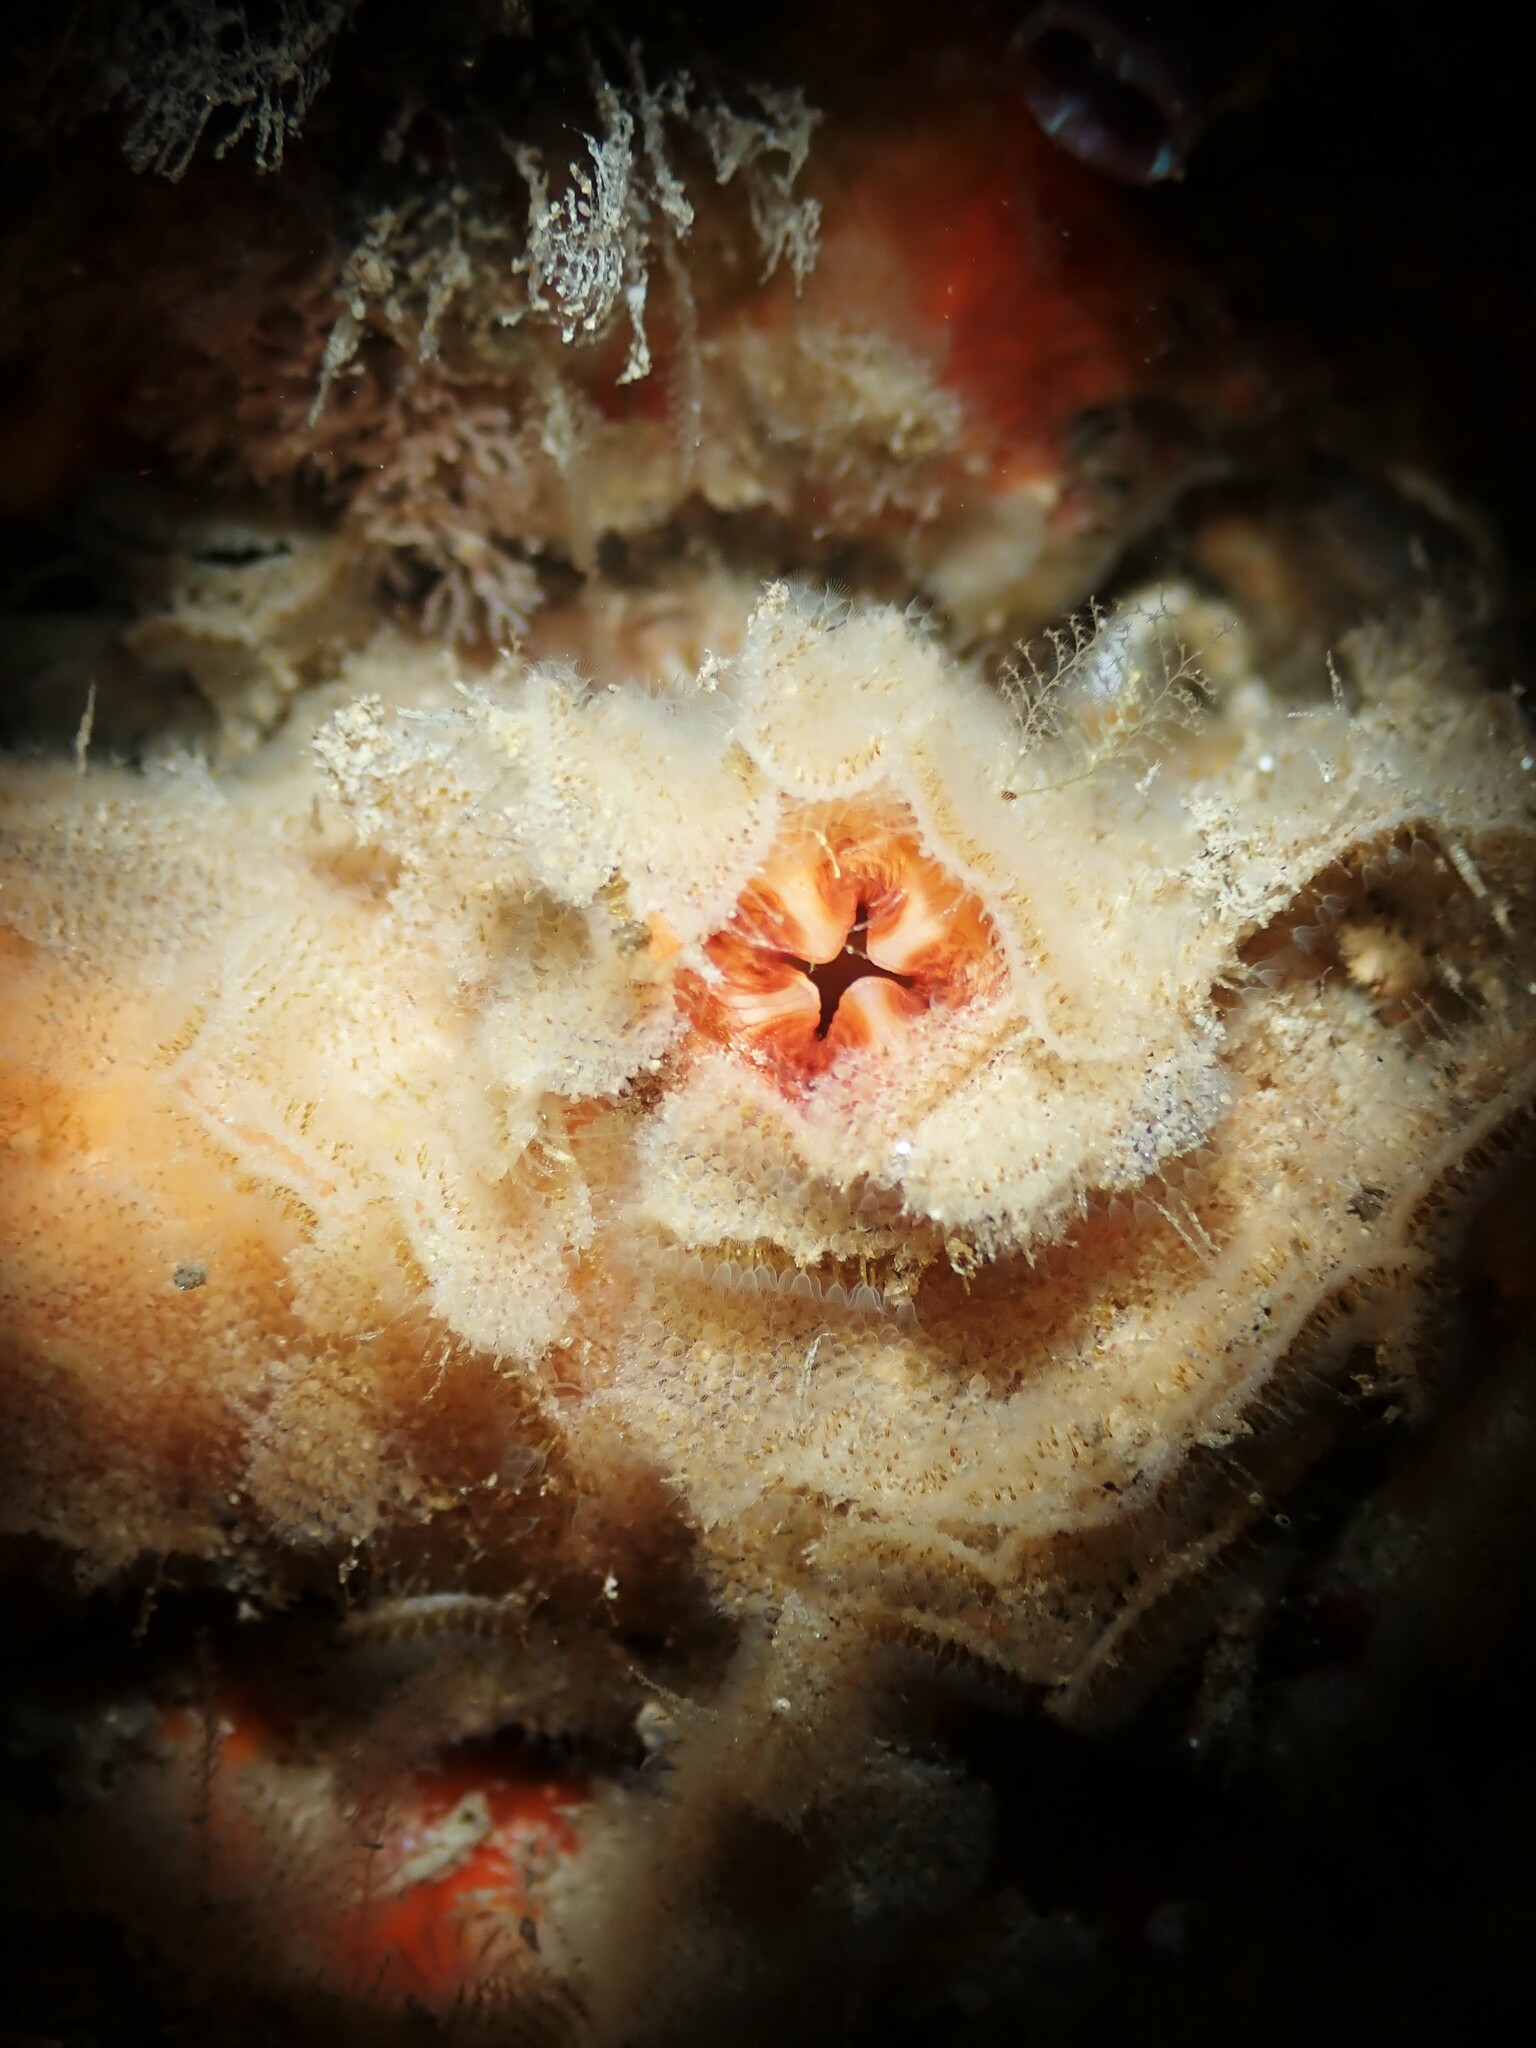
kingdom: Animalia
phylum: Bryozoa
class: Gymnolaemata
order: Cheilostomatida
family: Beaniidae
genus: Beania
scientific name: Beania magellanica
